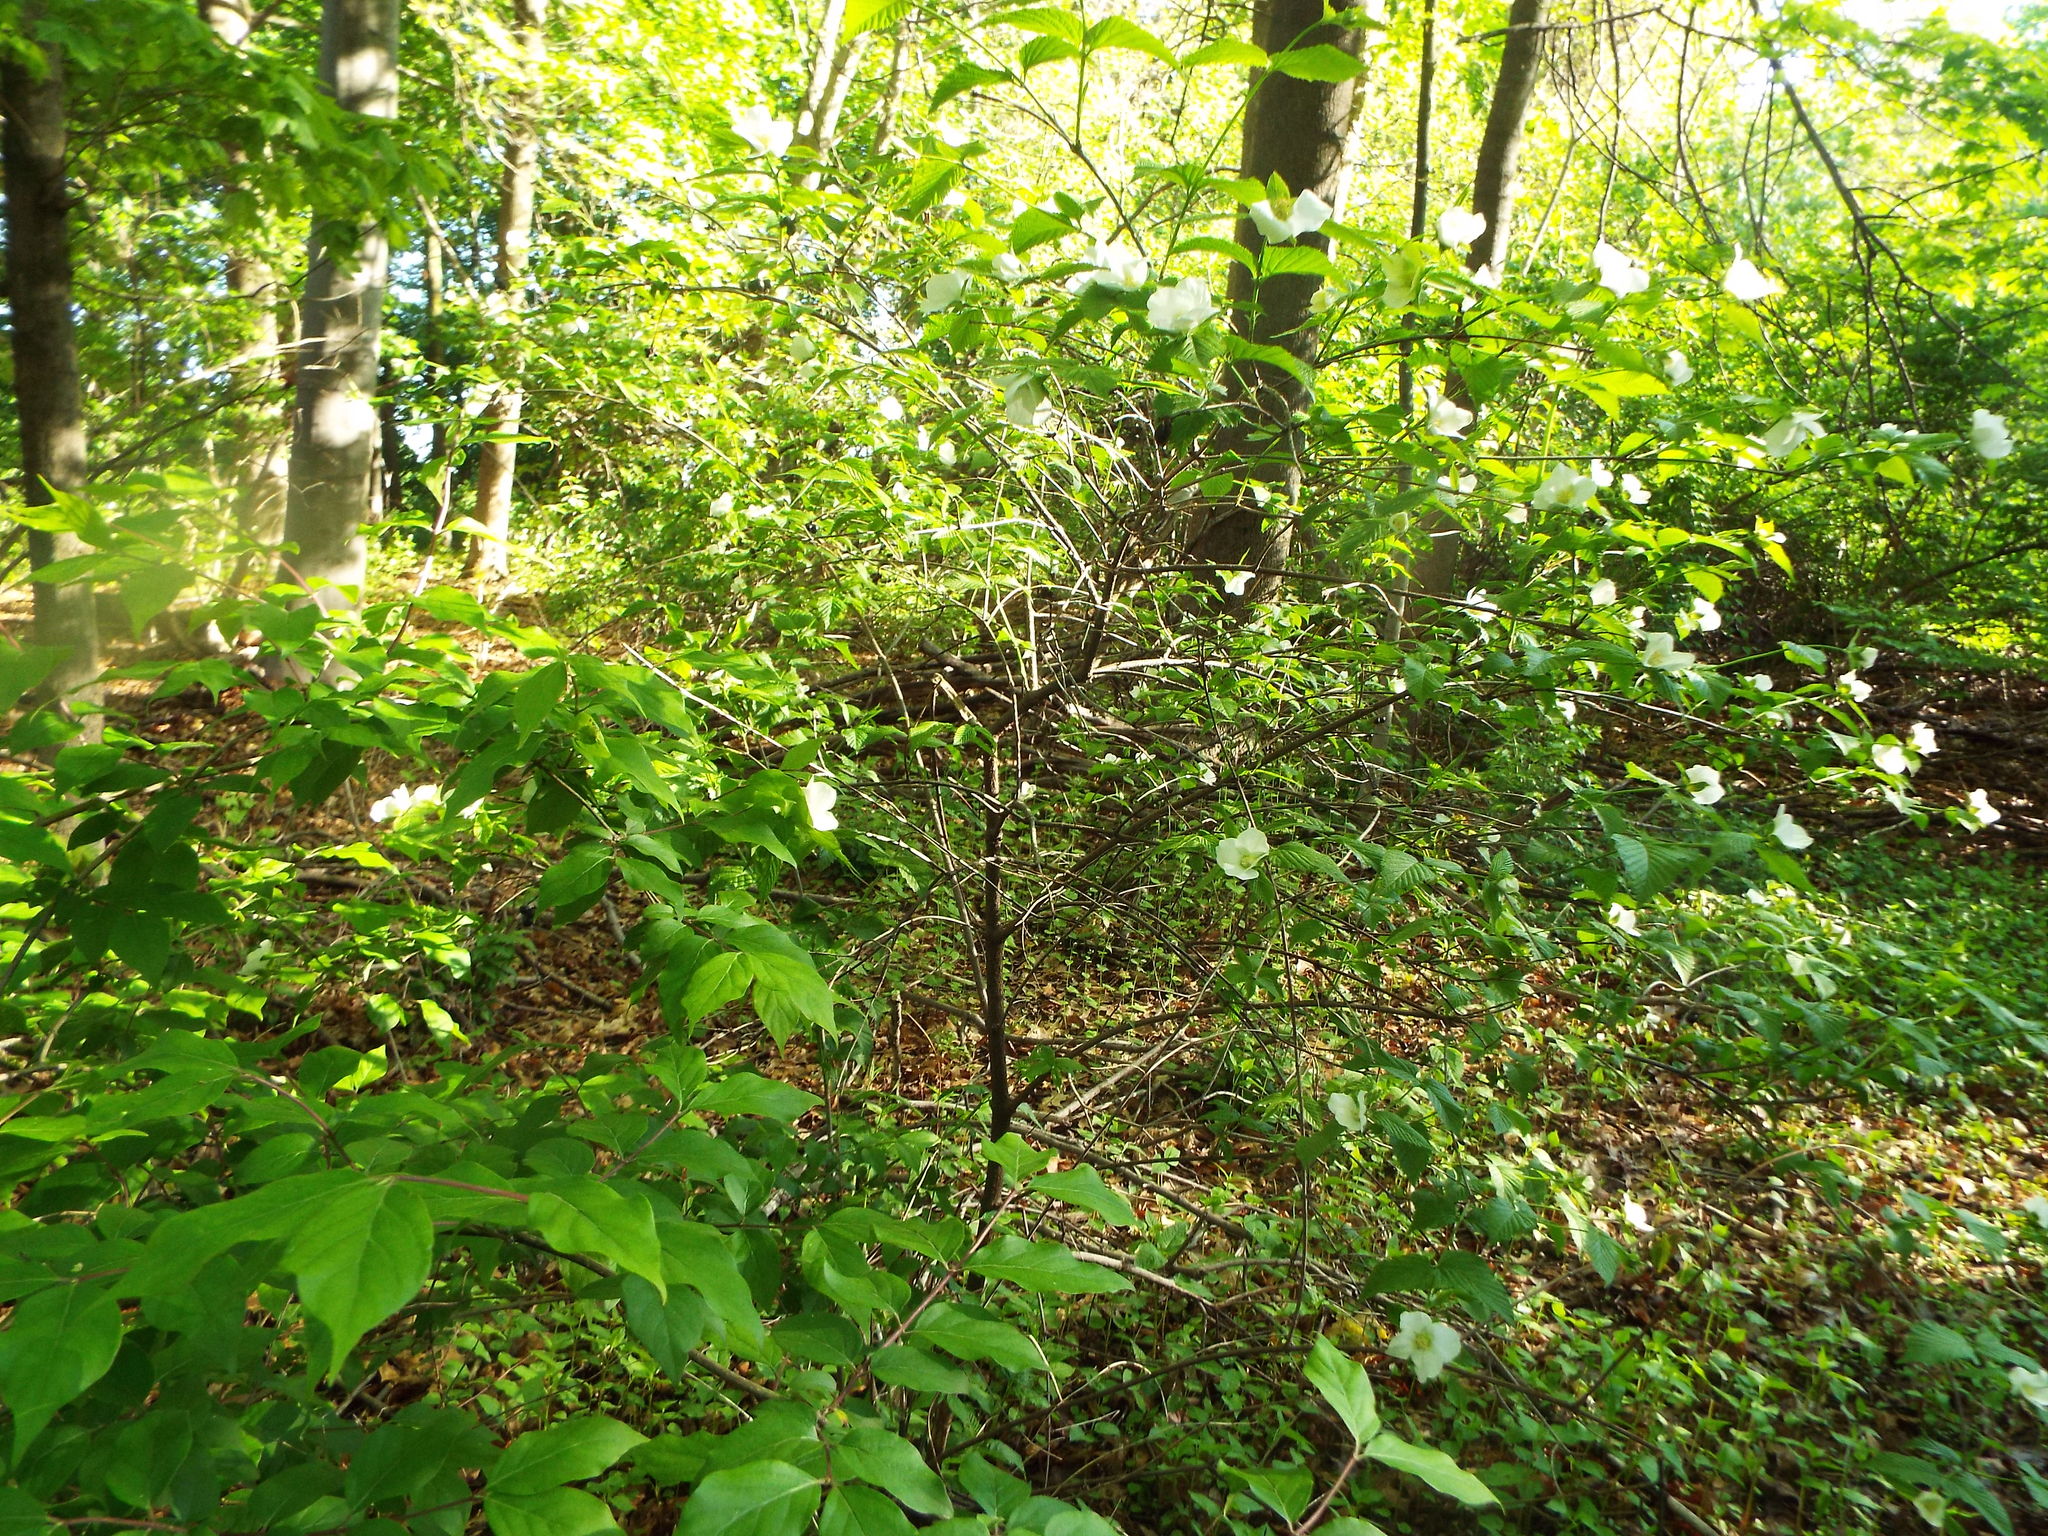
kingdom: Plantae
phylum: Tracheophyta
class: Magnoliopsida
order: Rosales
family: Rosaceae
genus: Rhodotypos
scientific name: Rhodotypos scandens
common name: Jetbead
